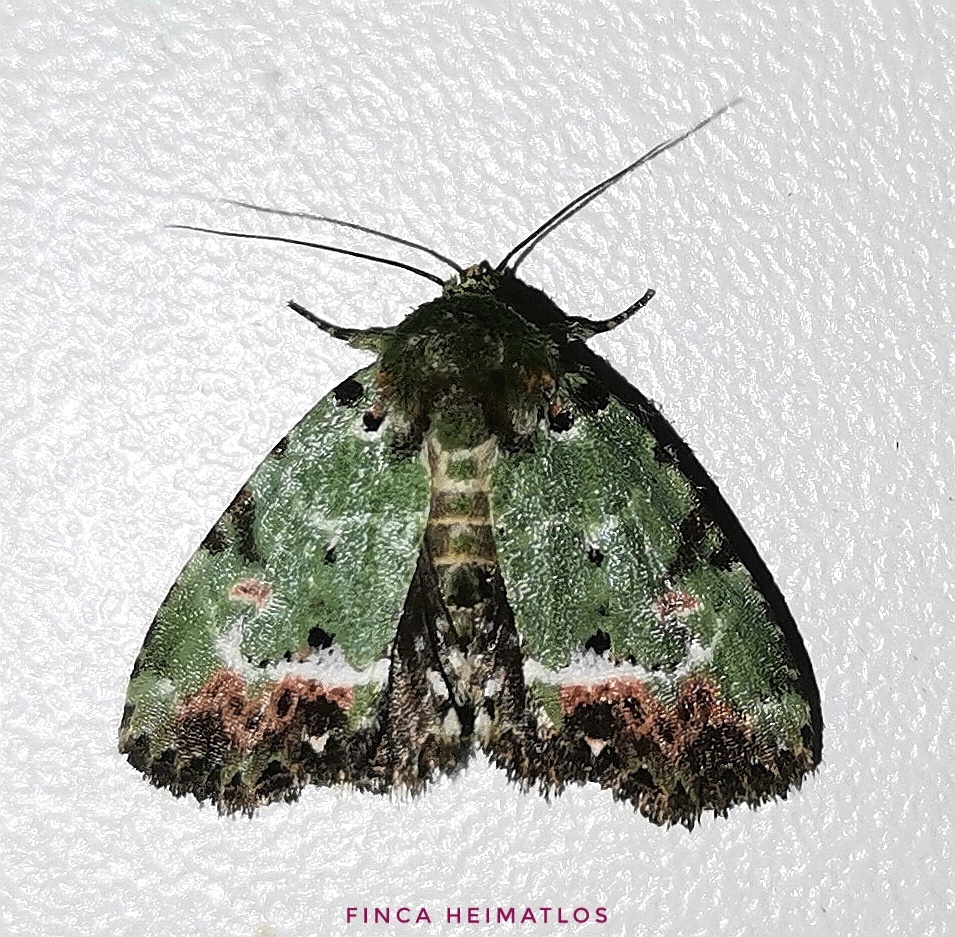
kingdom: Animalia
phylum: Arthropoda
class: Insecta
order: Lepidoptera
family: Noctuidae
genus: Chytonix
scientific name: Chytonix pyrrha
